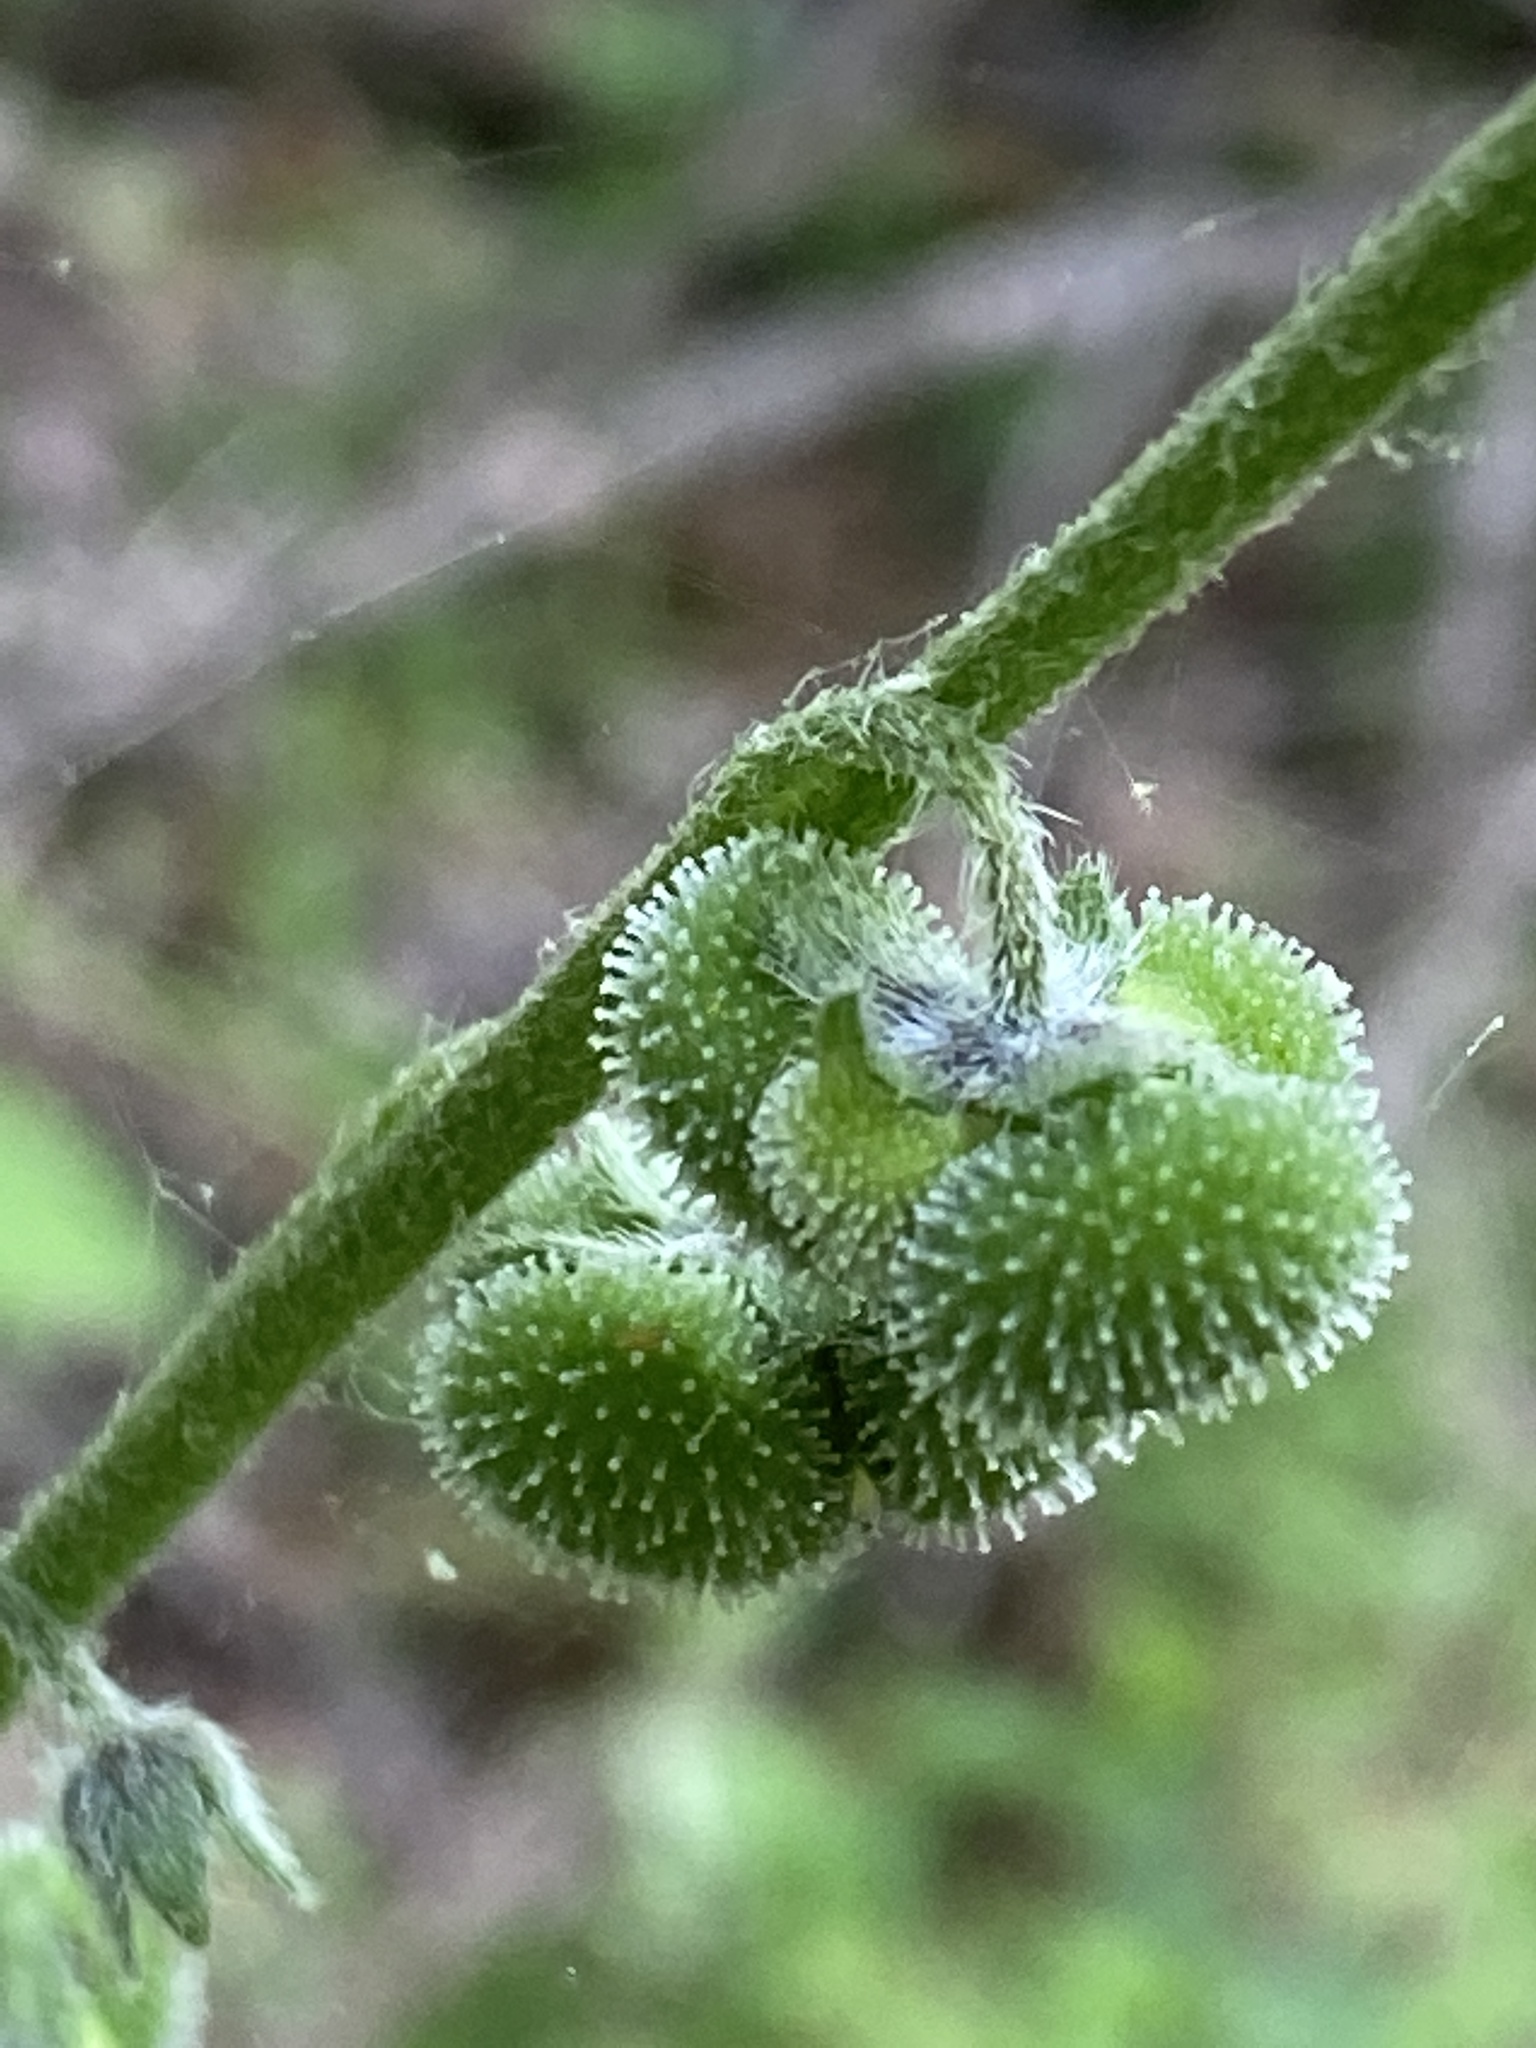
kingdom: Plantae
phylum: Tracheophyta
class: Magnoliopsida
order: Boraginales
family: Boraginaceae
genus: Andersonglossum
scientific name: Andersonglossum virginianum
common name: Wild comfrey
